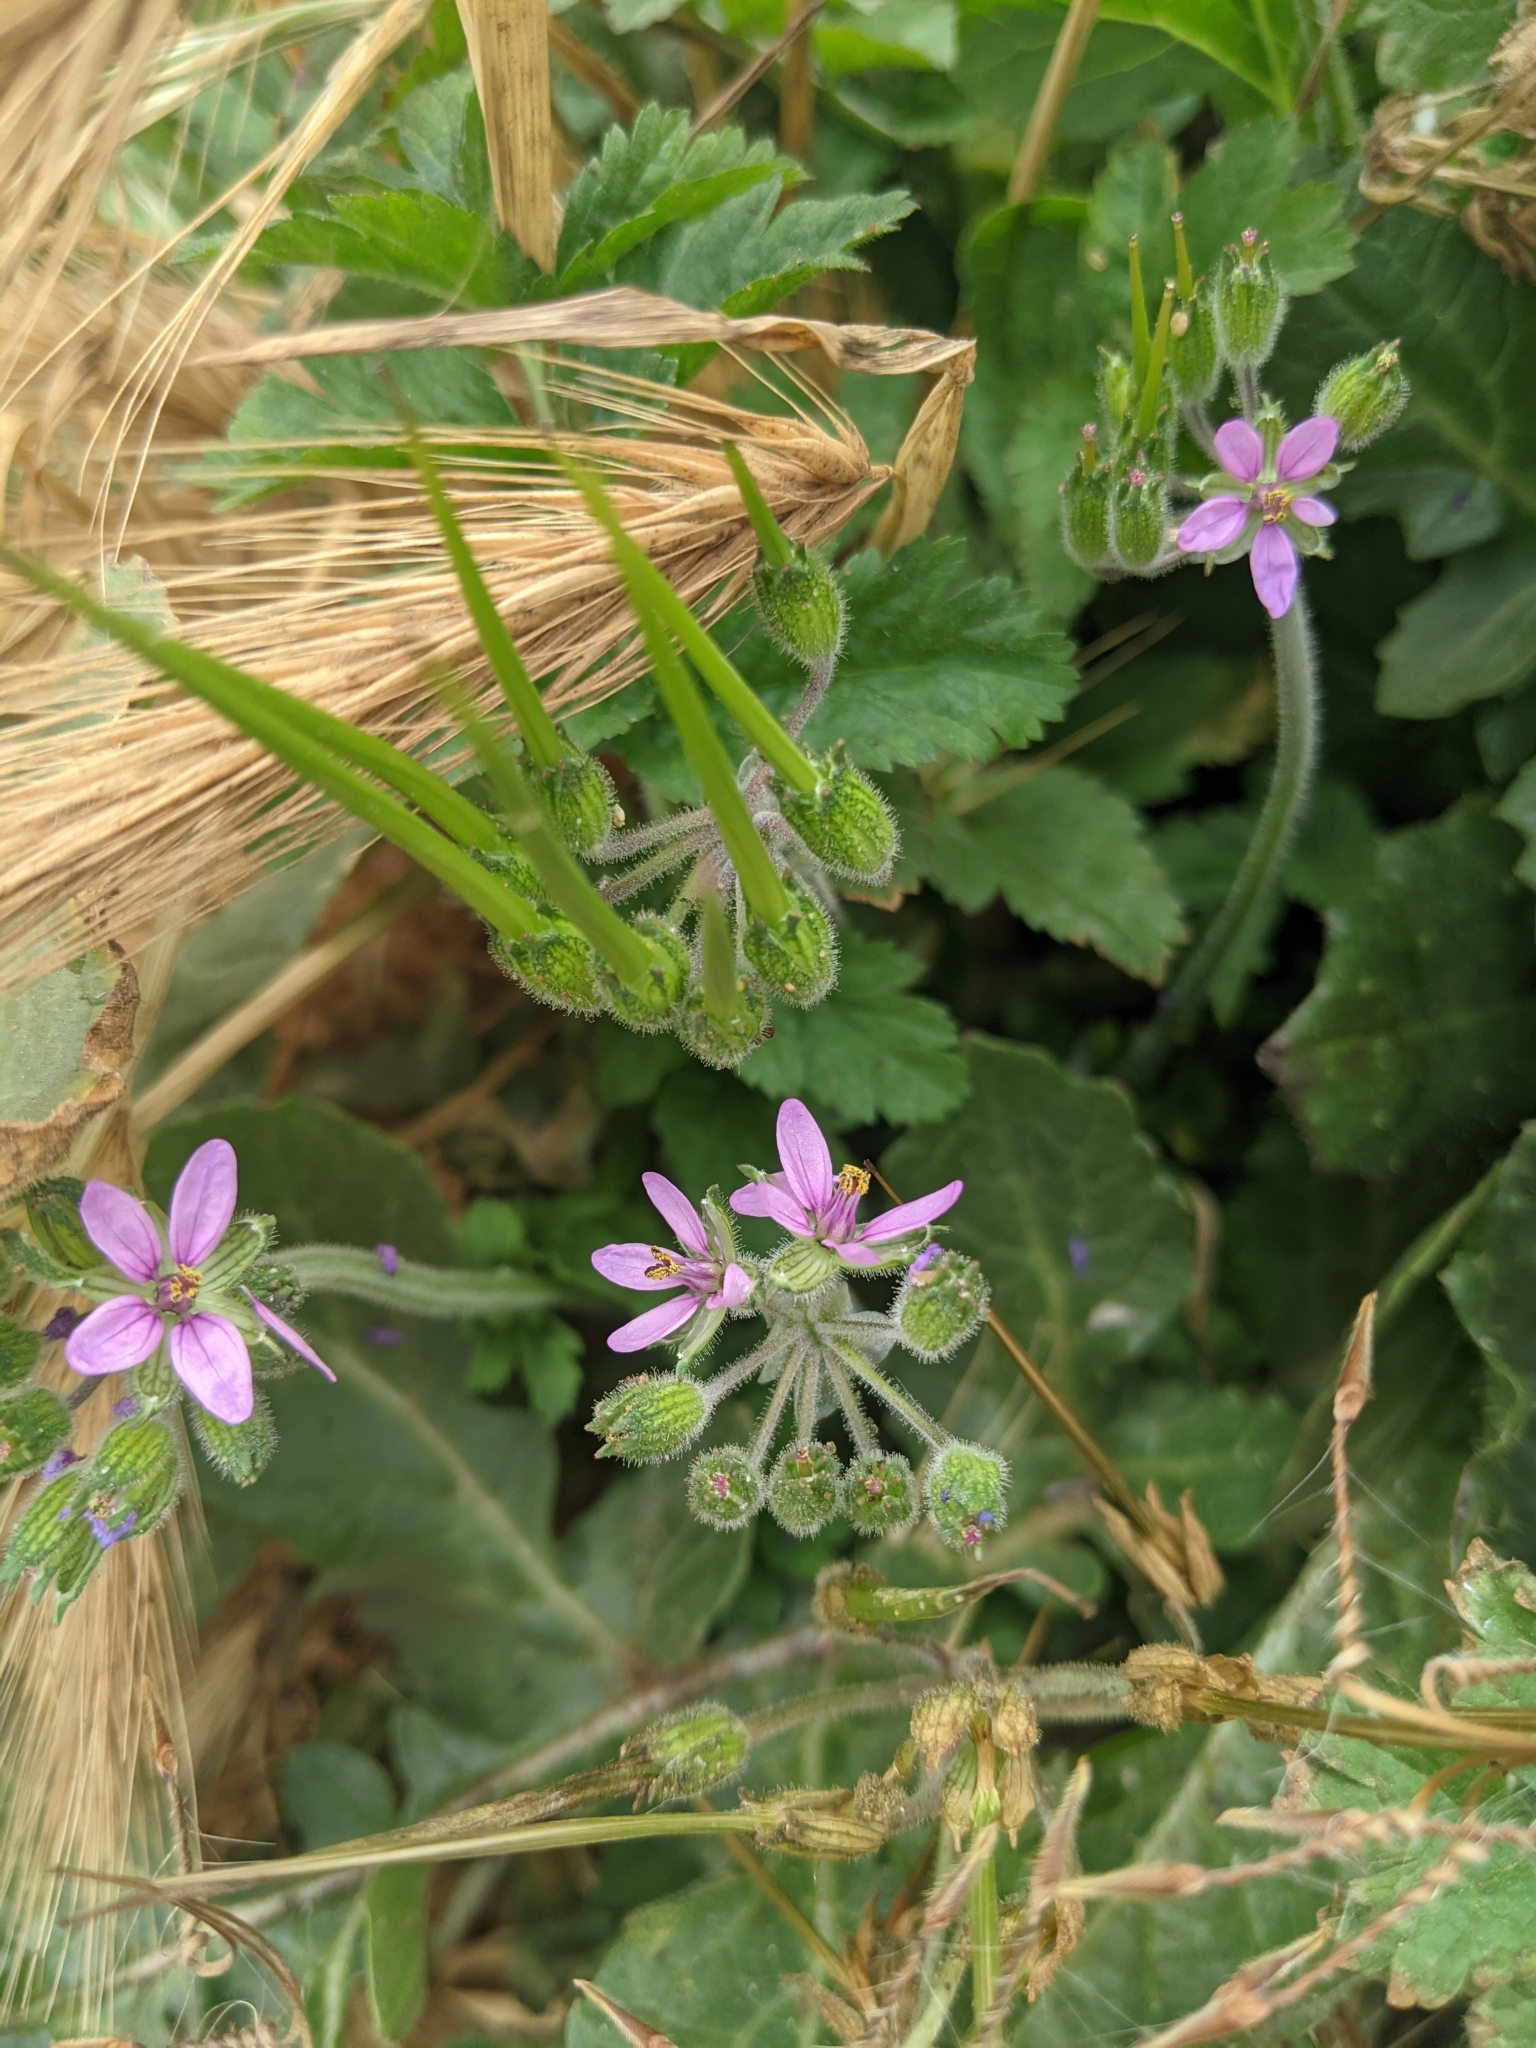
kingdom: Plantae
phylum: Tracheophyta
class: Magnoliopsida
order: Geraniales
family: Geraniaceae
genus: Erodium
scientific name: Erodium moschatum
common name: Musk stork's-bill
